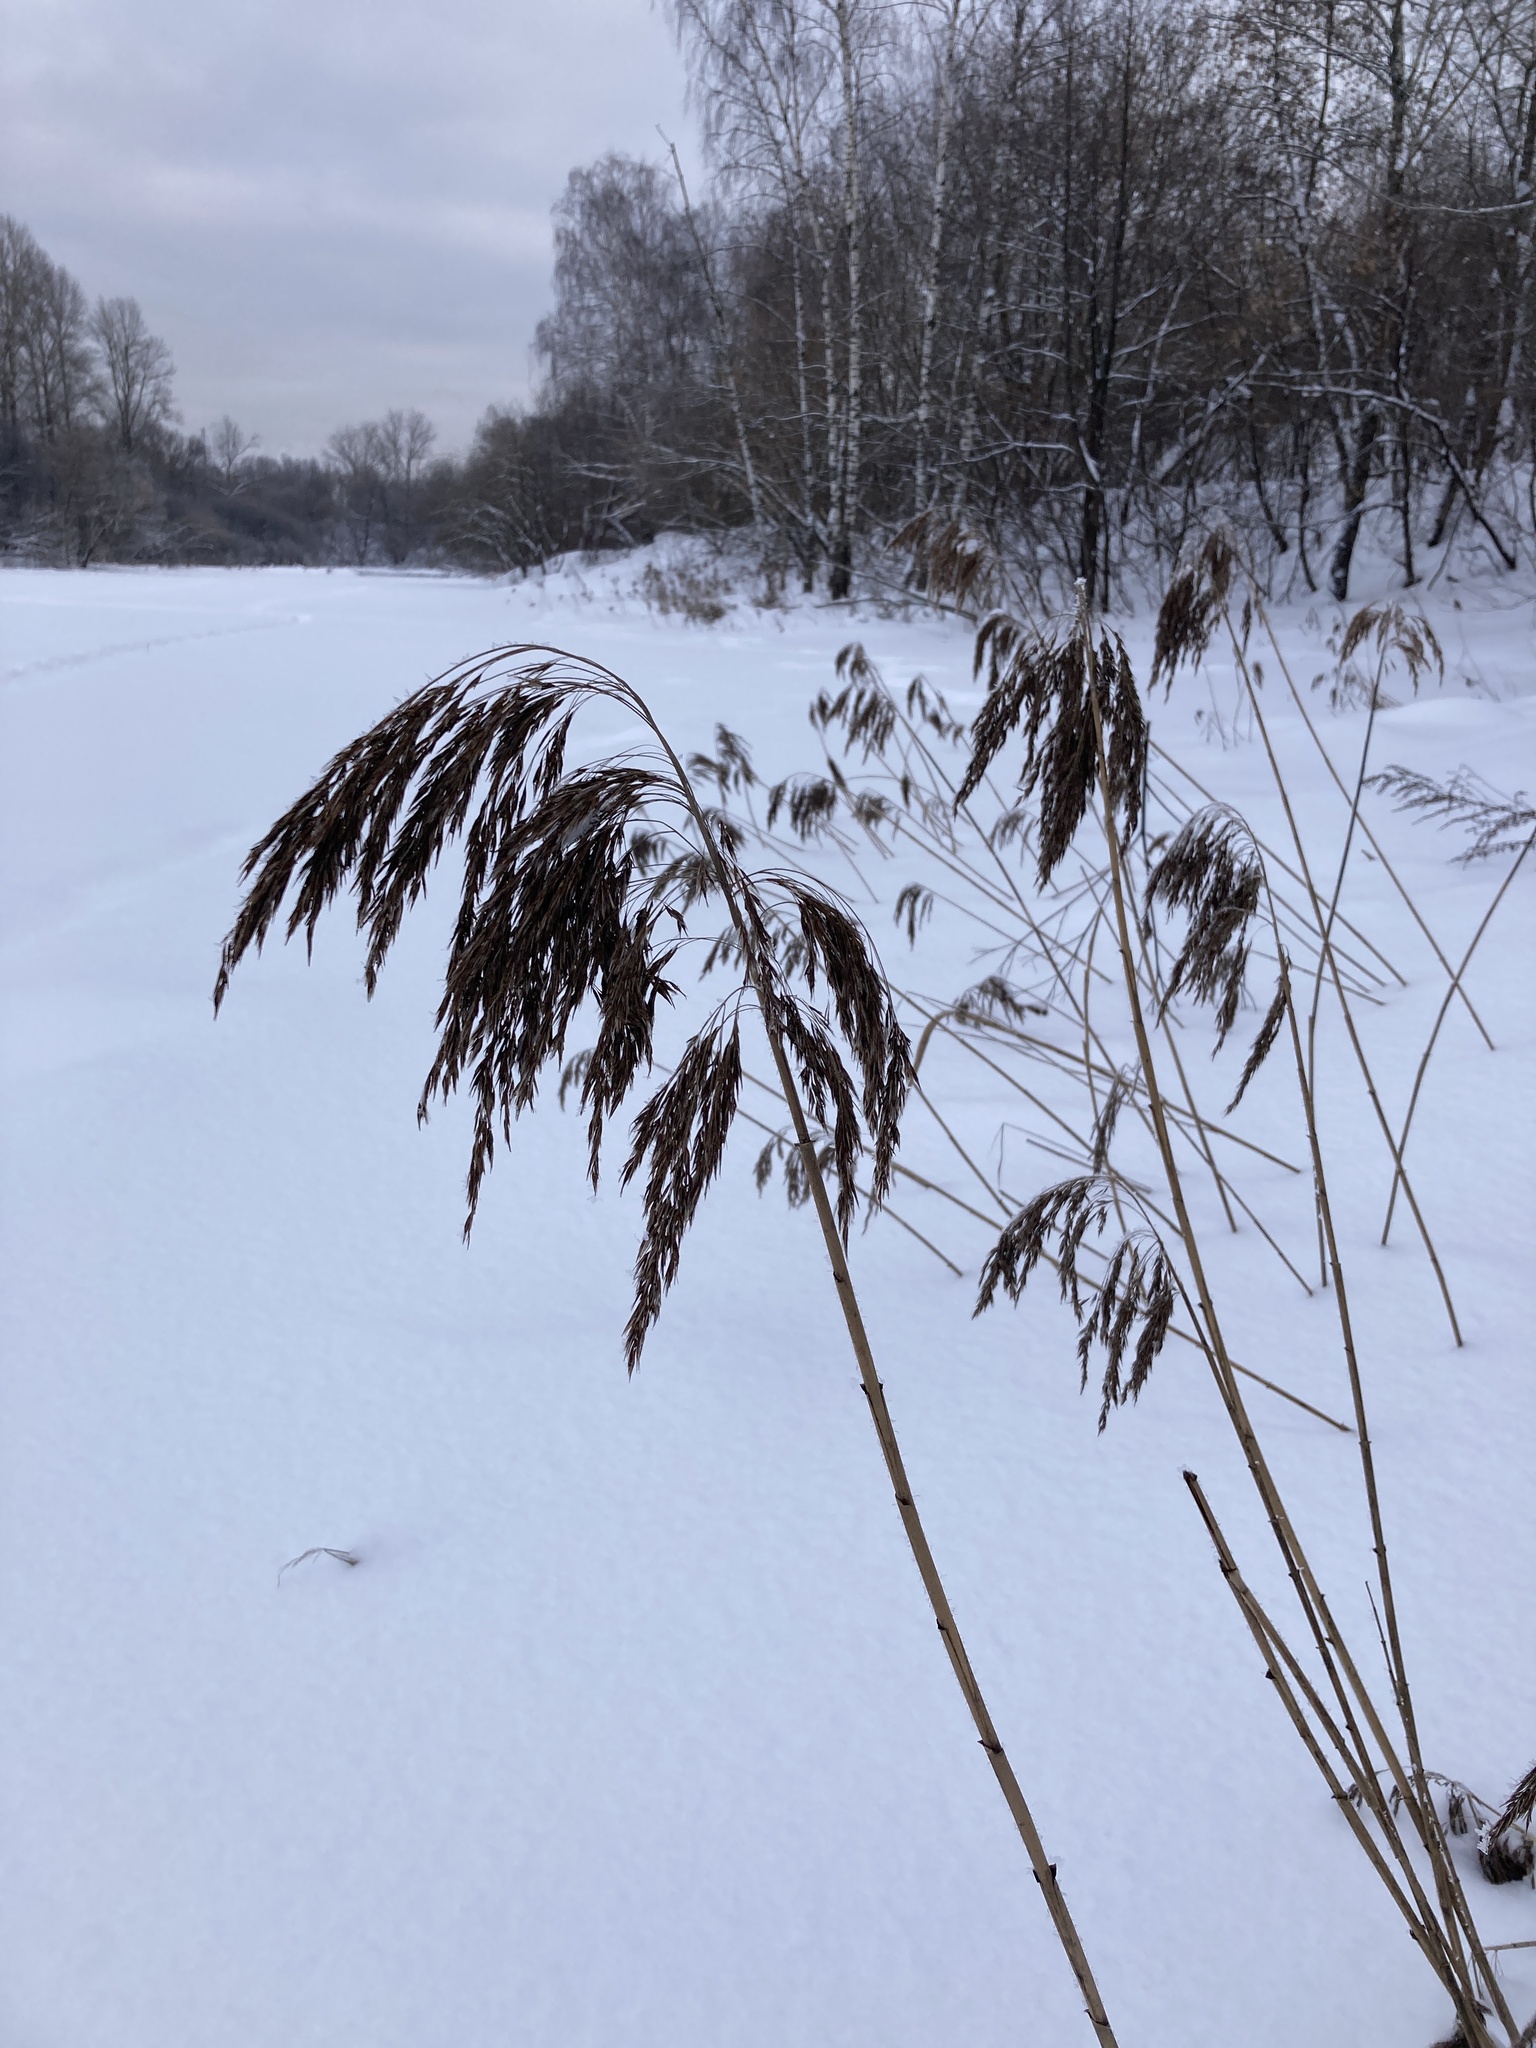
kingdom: Plantae
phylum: Tracheophyta
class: Liliopsida
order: Poales
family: Poaceae
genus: Phragmites
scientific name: Phragmites australis
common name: Common reed
